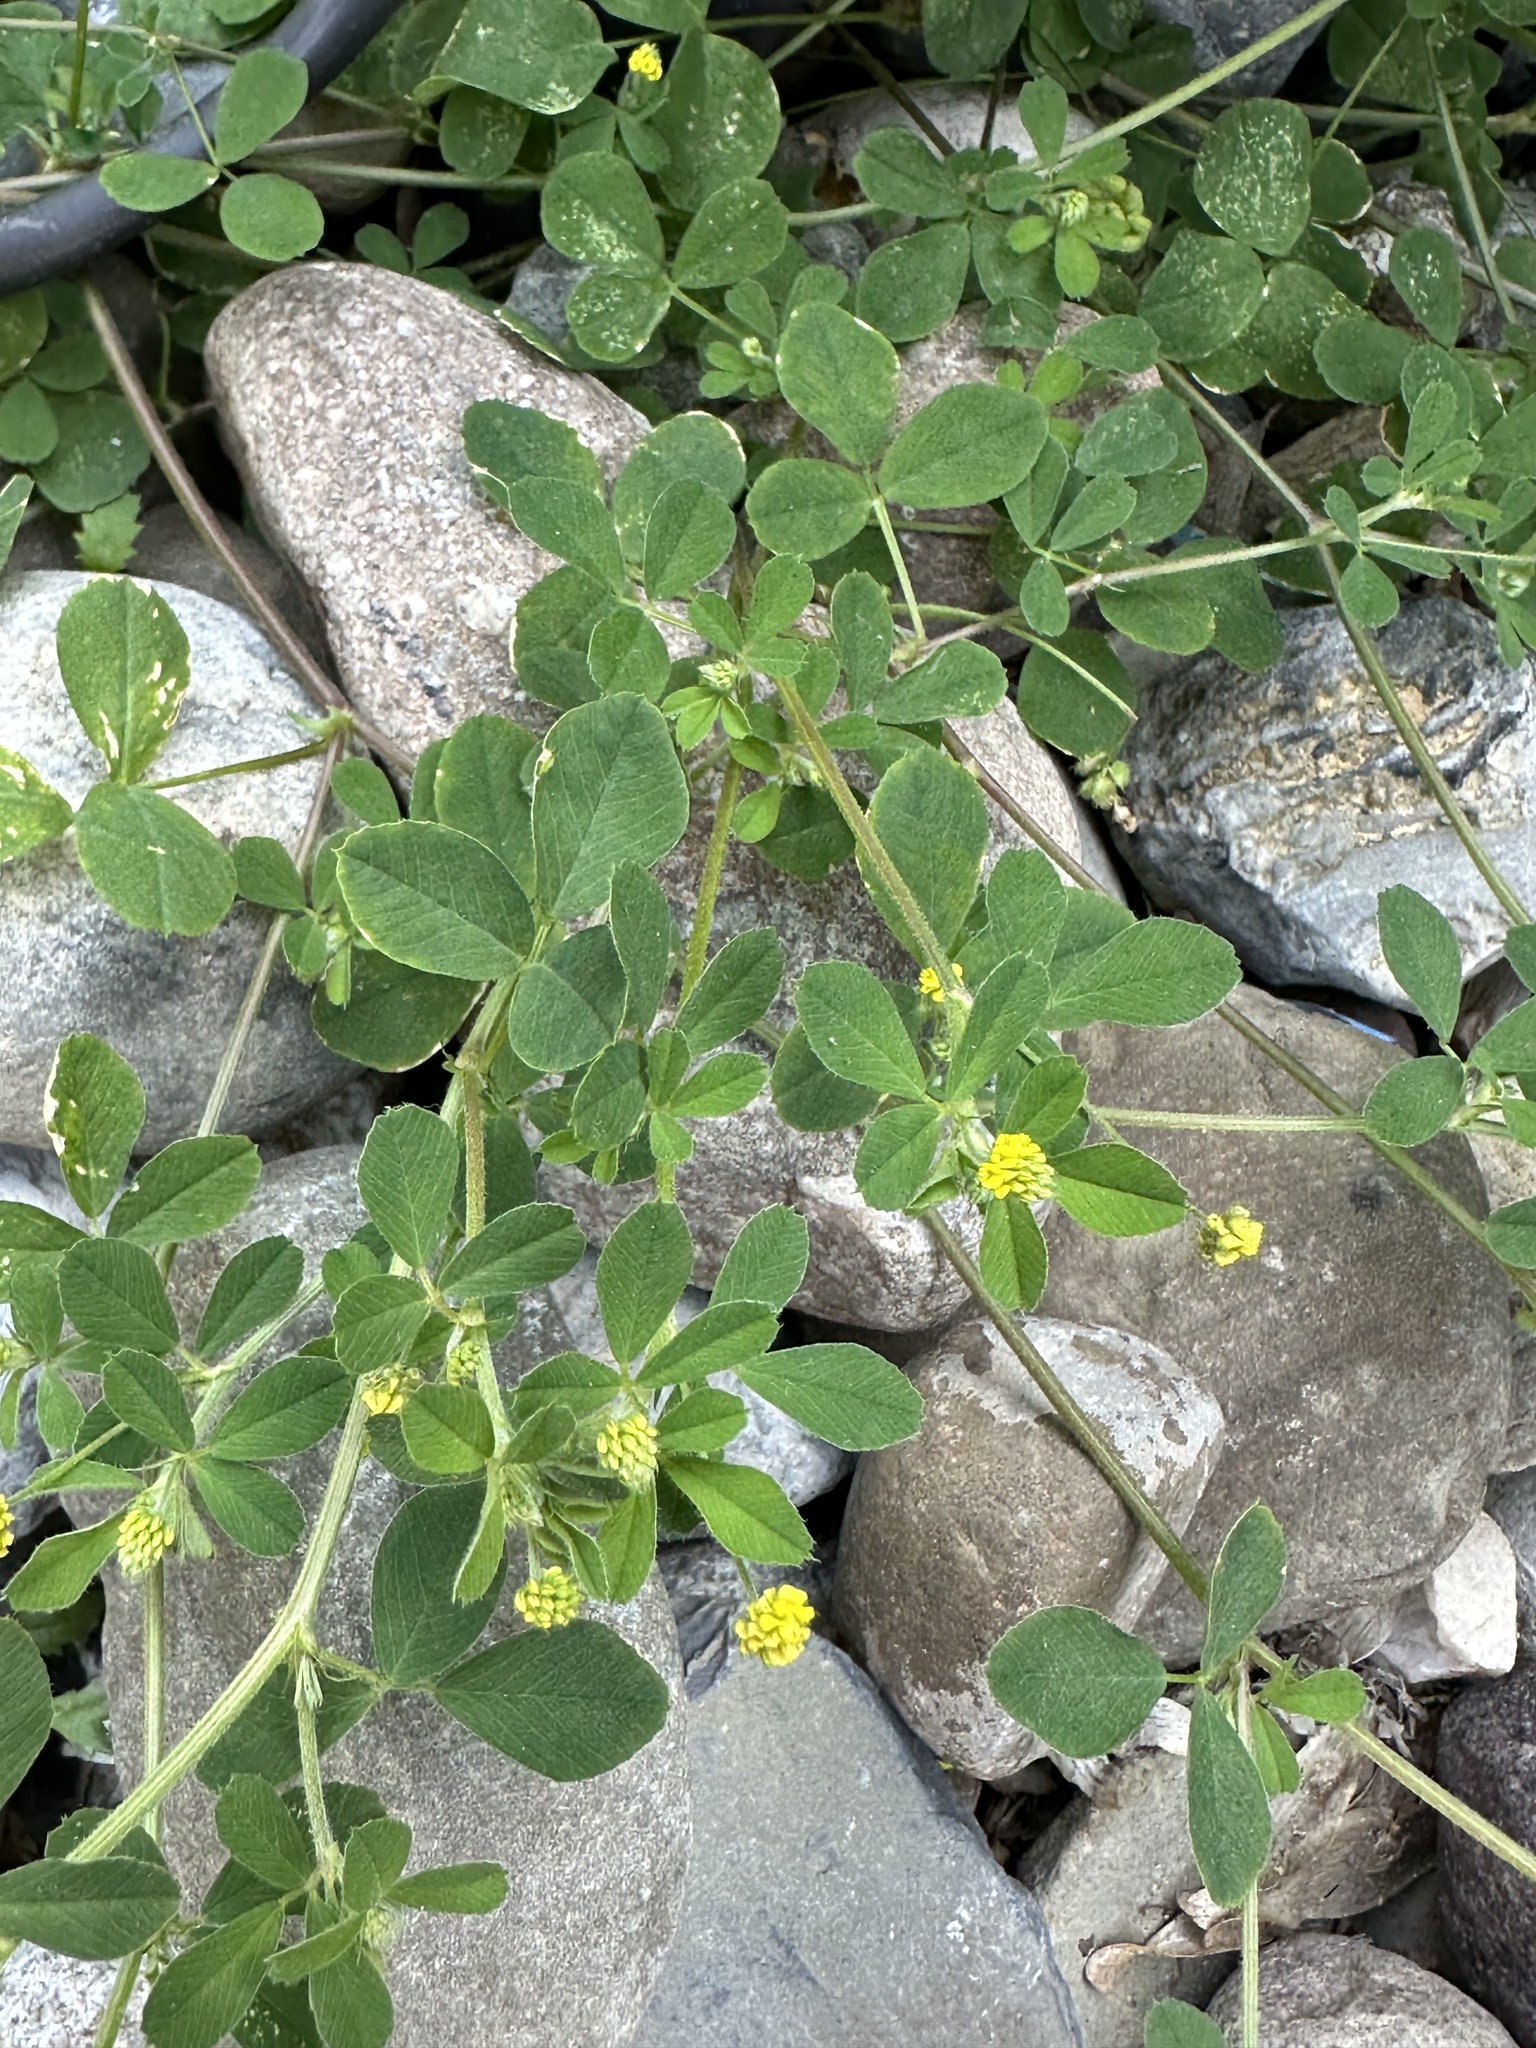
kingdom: Plantae
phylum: Tracheophyta
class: Magnoliopsida
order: Fabales
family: Fabaceae
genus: Medicago
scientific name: Medicago lupulina
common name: Black medick
